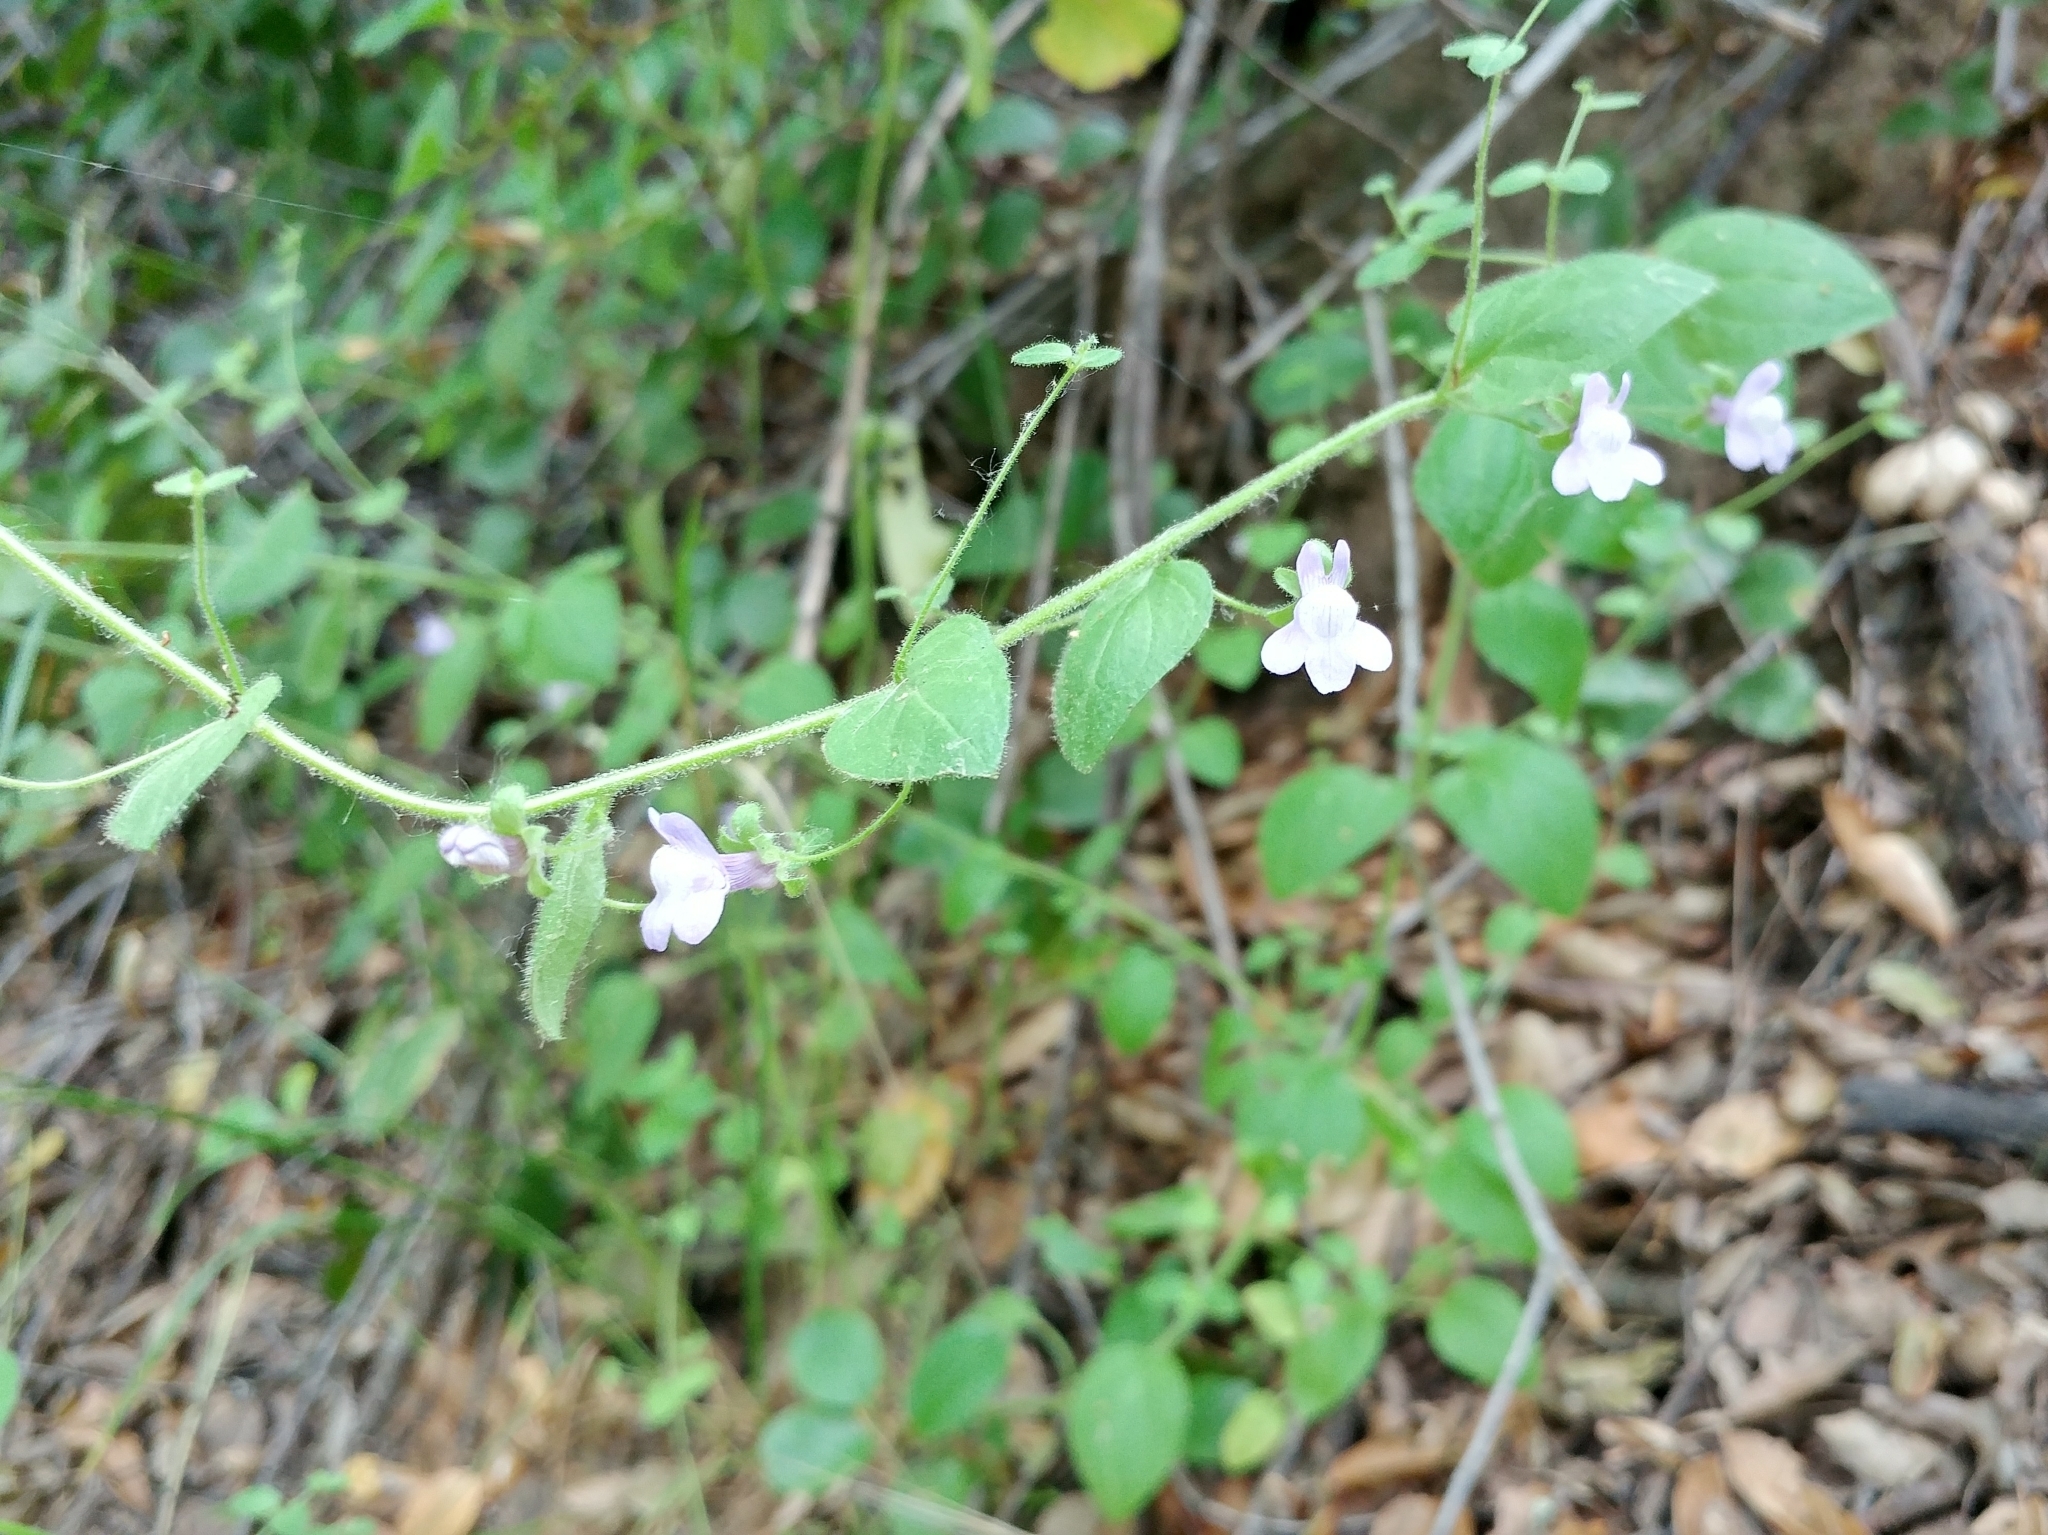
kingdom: Plantae
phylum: Tracheophyta
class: Magnoliopsida
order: Lamiales
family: Plantaginaceae
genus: Sairocarpus
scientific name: Sairocarpus nuttallianus
